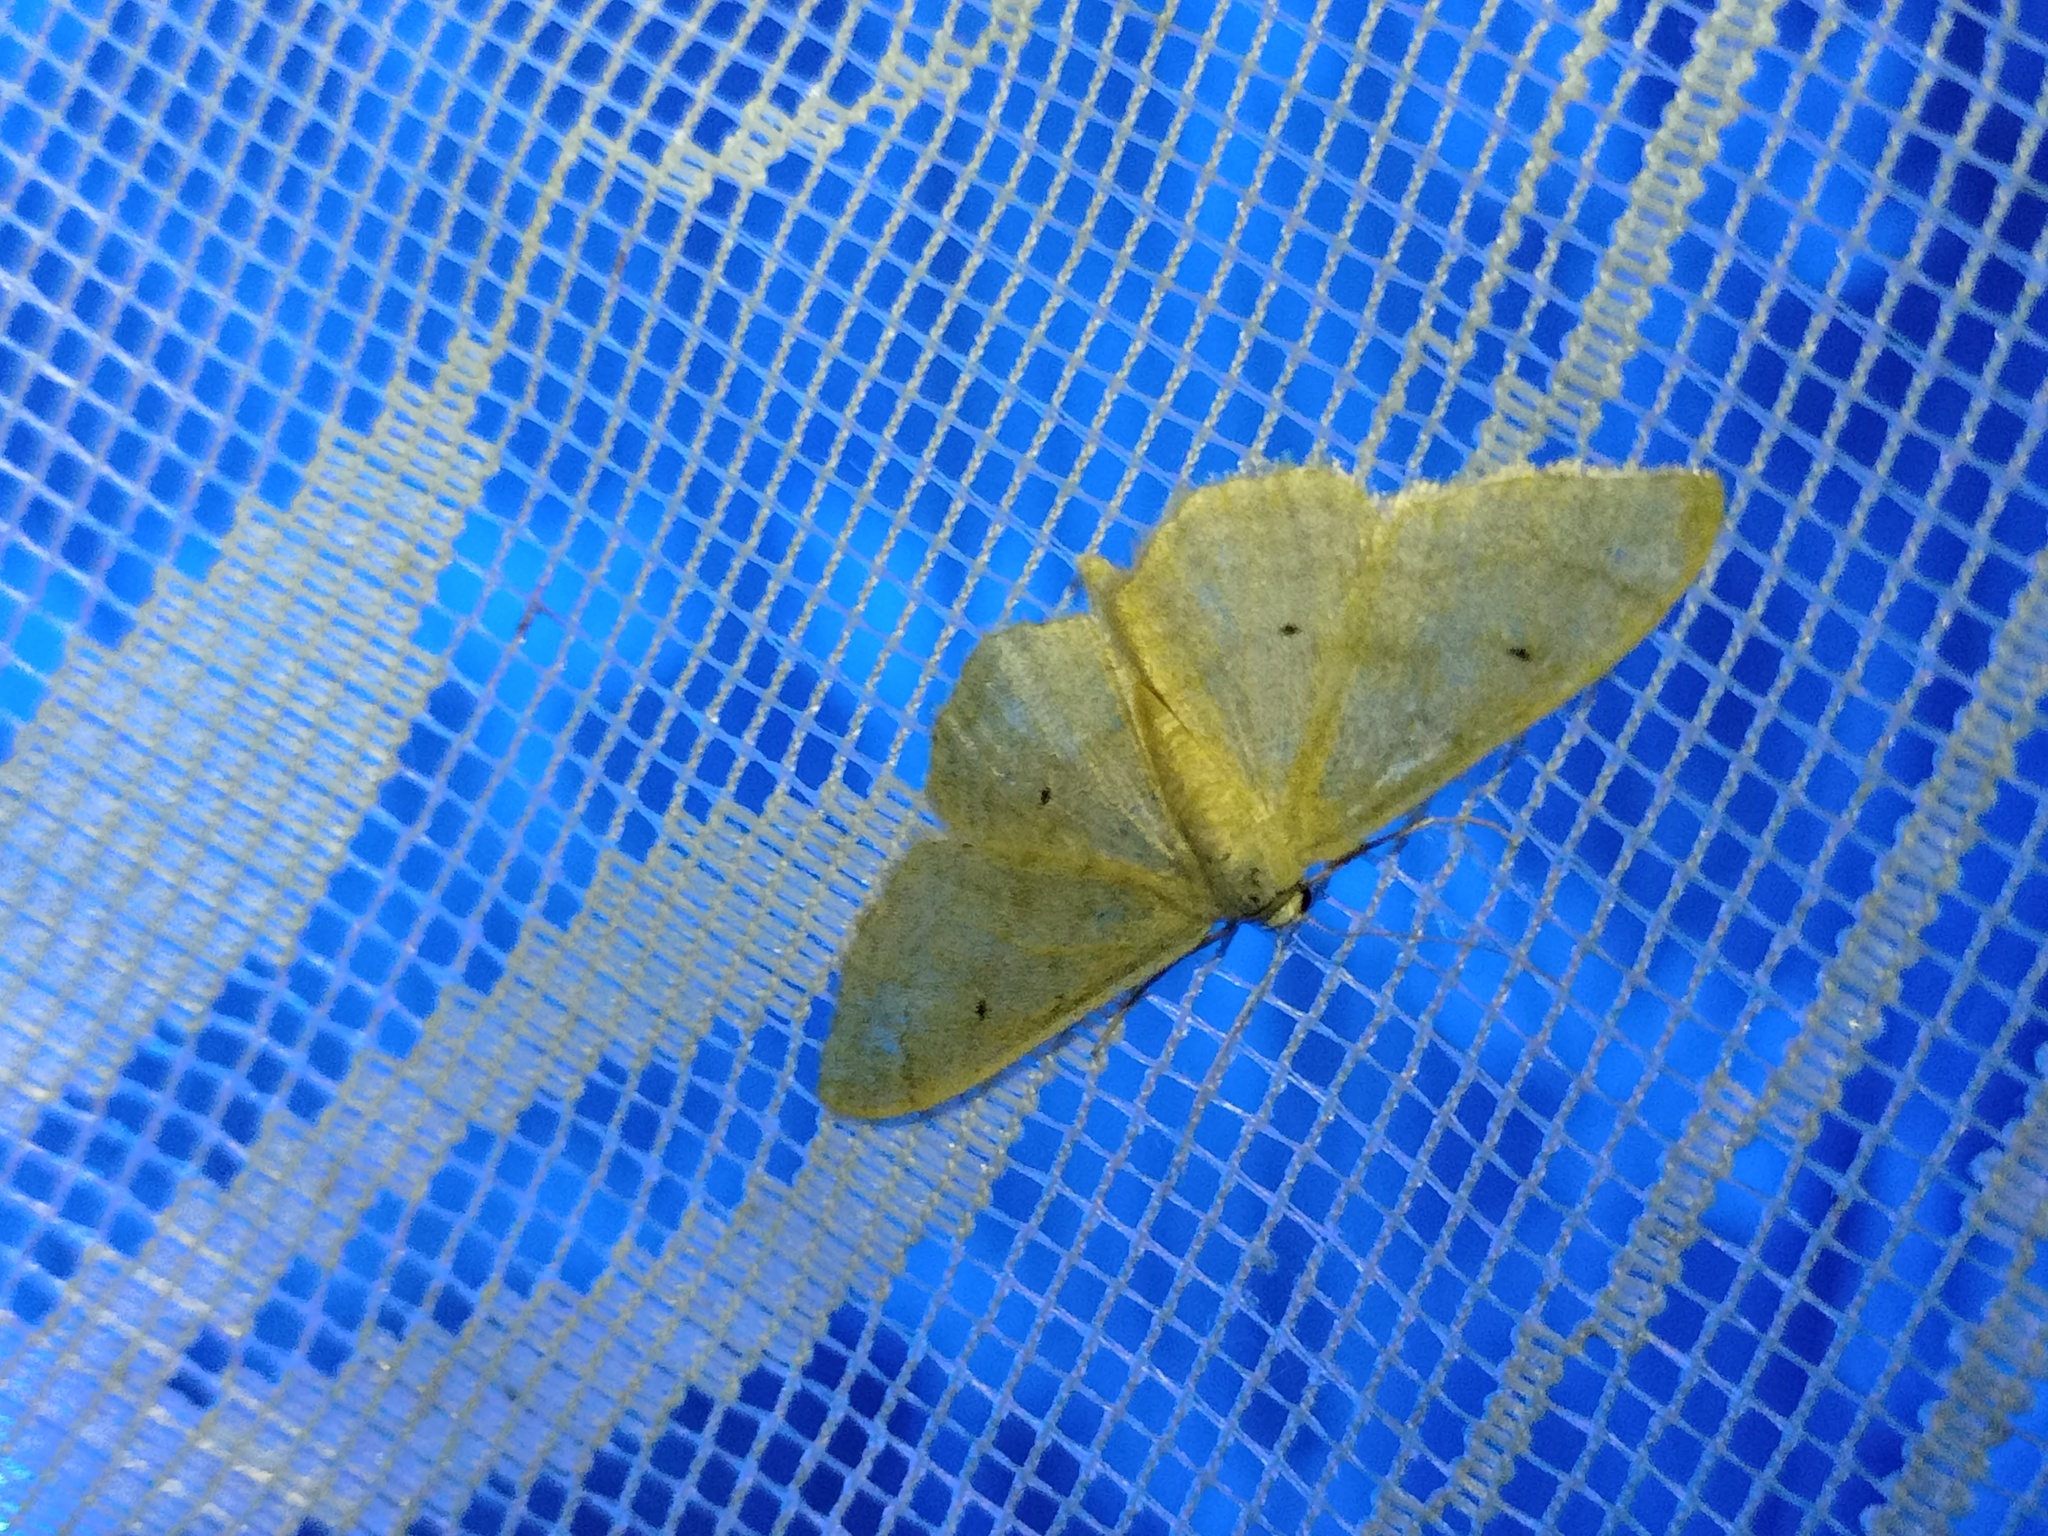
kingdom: Animalia
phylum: Arthropoda
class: Insecta
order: Lepidoptera
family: Geometridae
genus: Idaea
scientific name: Idaea straminata
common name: Plain wave
